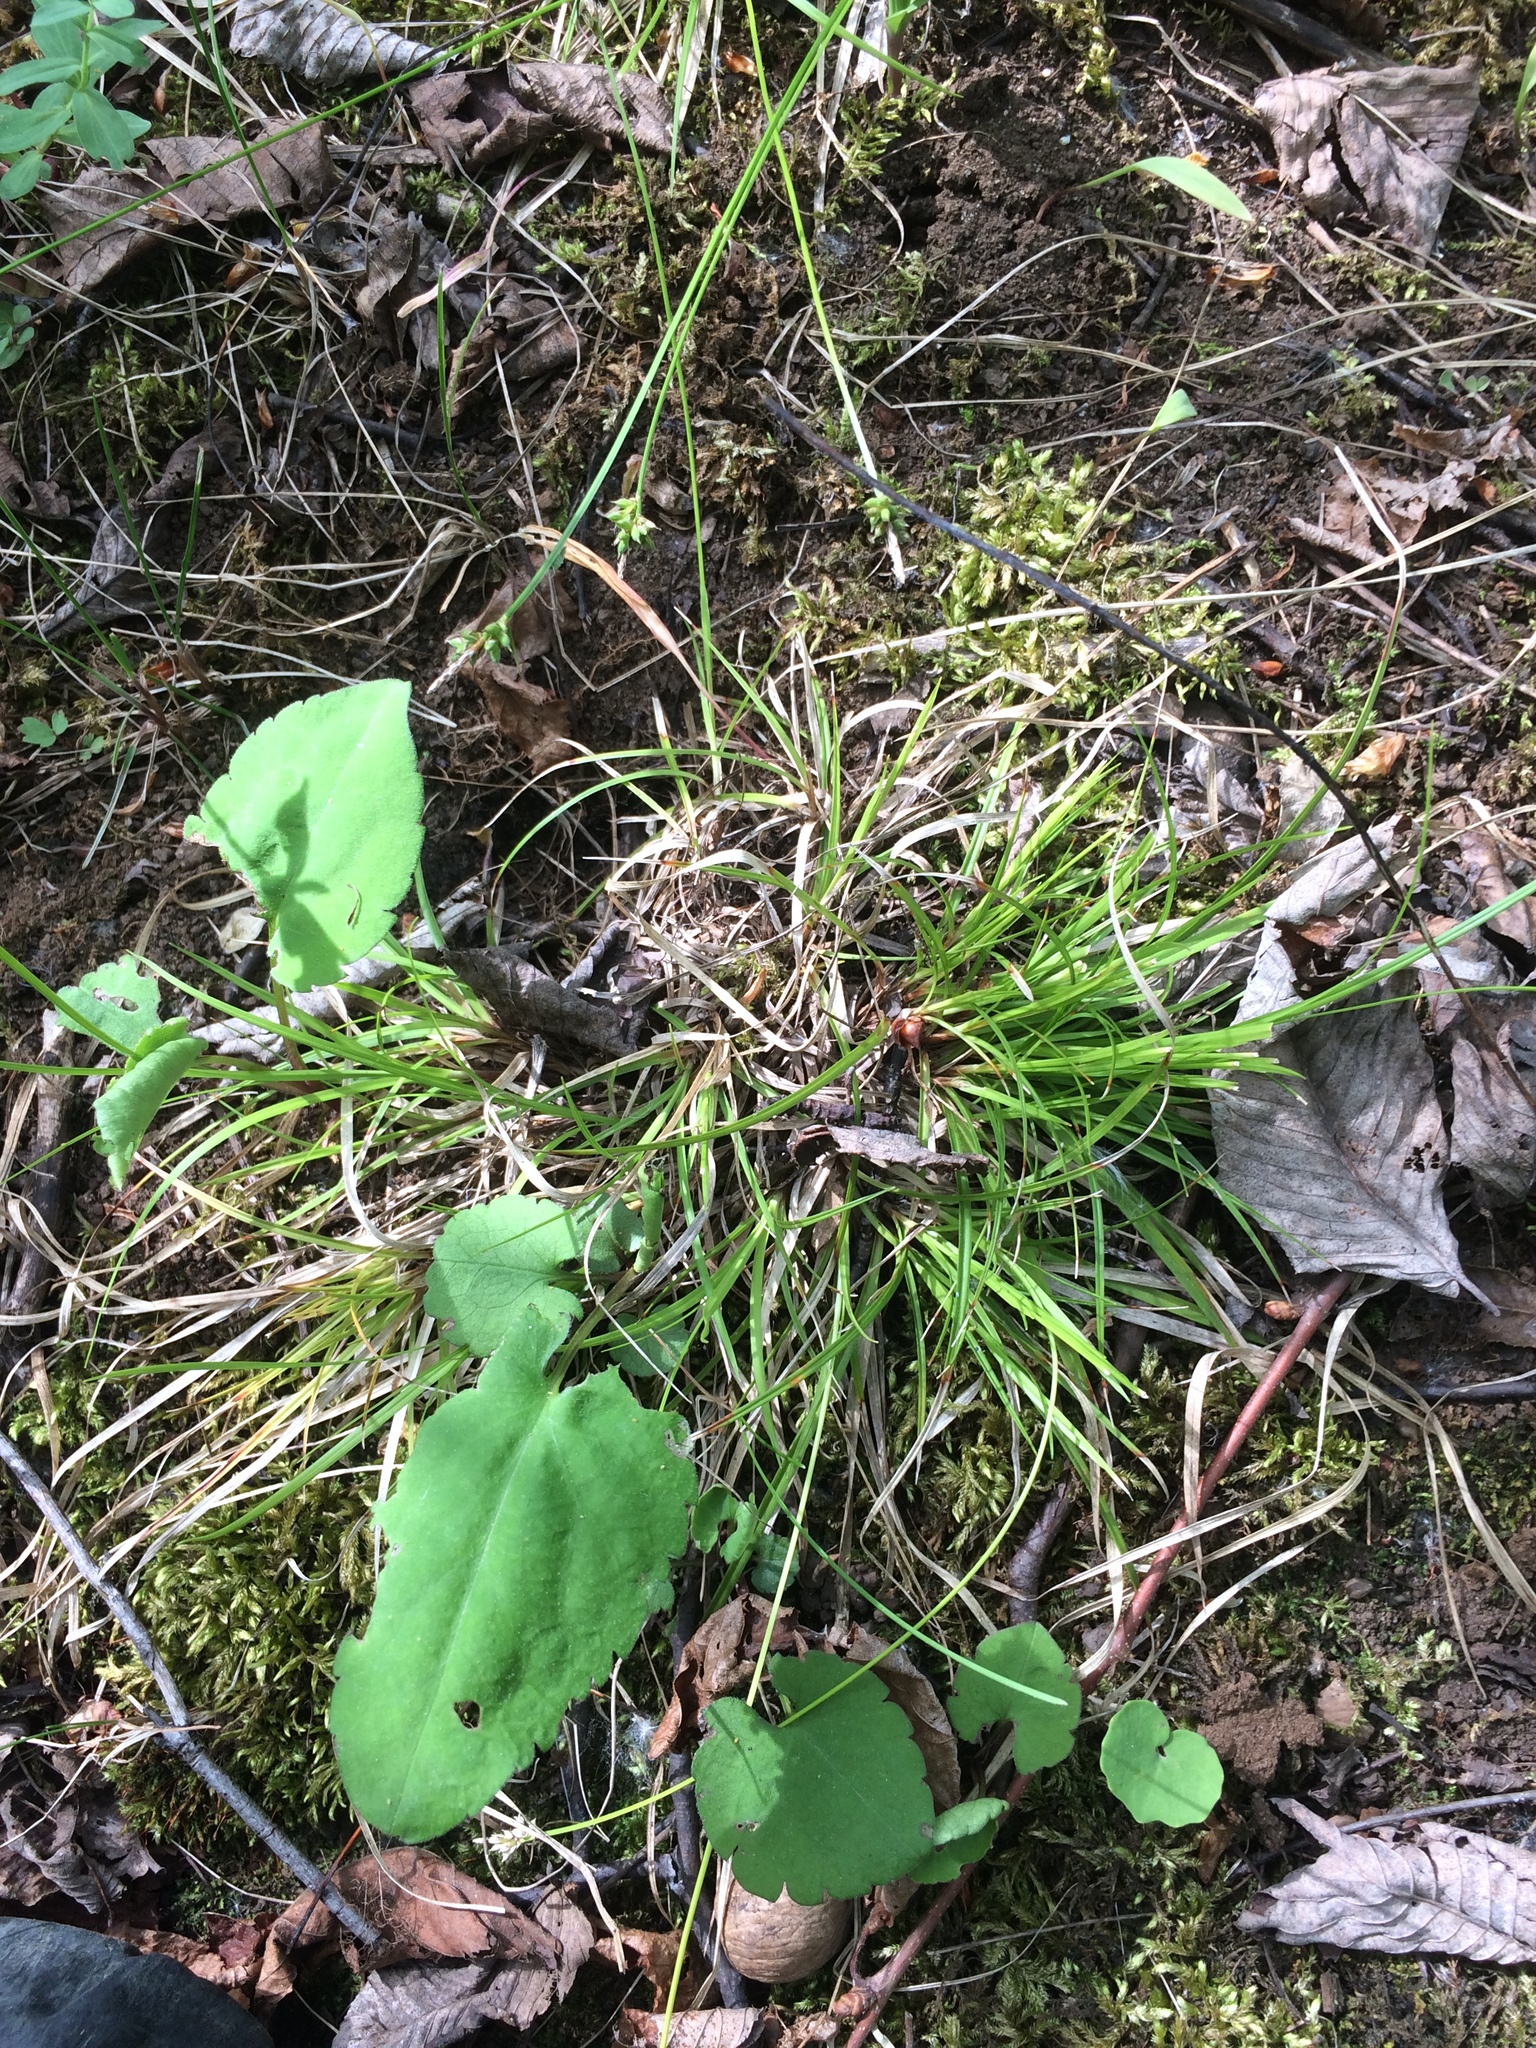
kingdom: Plantae
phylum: Tracheophyta
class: Liliopsida
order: Poales
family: Cyperaceae
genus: Carex
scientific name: Carex communis
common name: Colonial oak sedge
